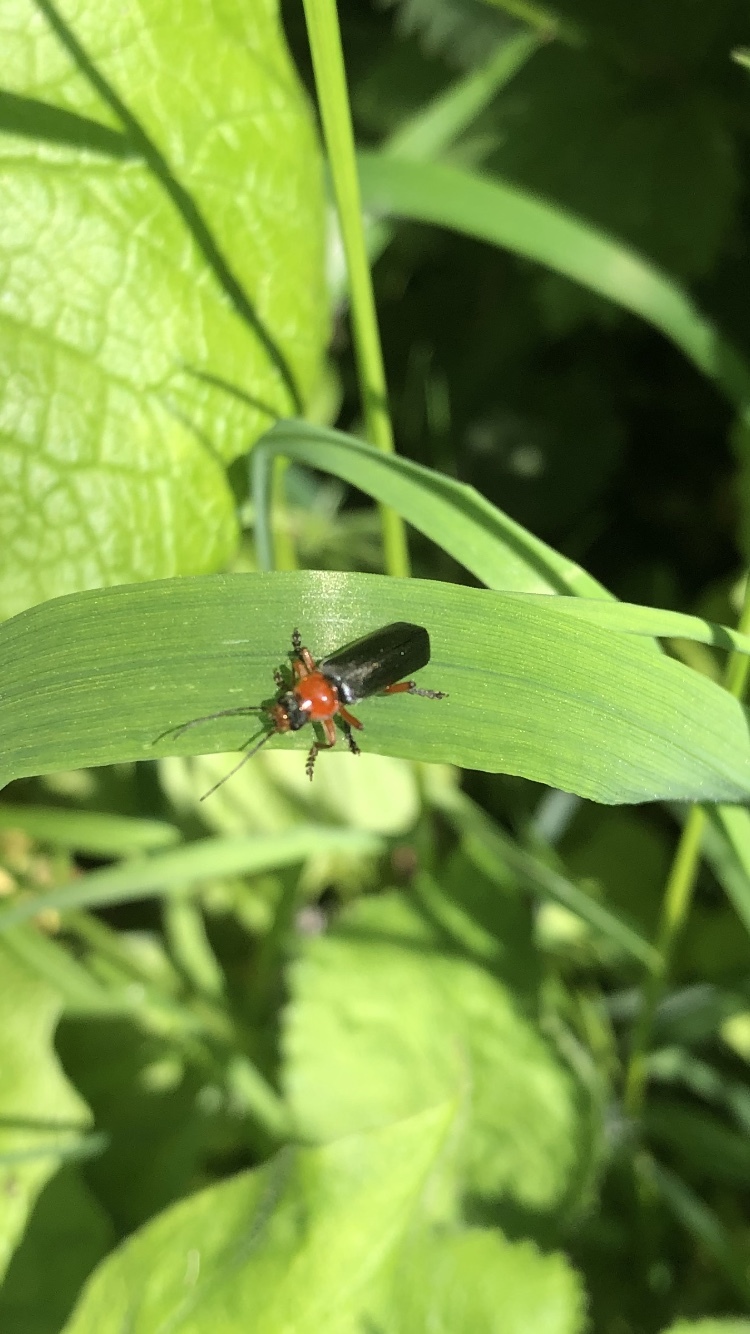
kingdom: Animalia
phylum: Arthropoda
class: Insecta
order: Coleoptera
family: Cantharidae
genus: Cantharis
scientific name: Cantharis pellucida
